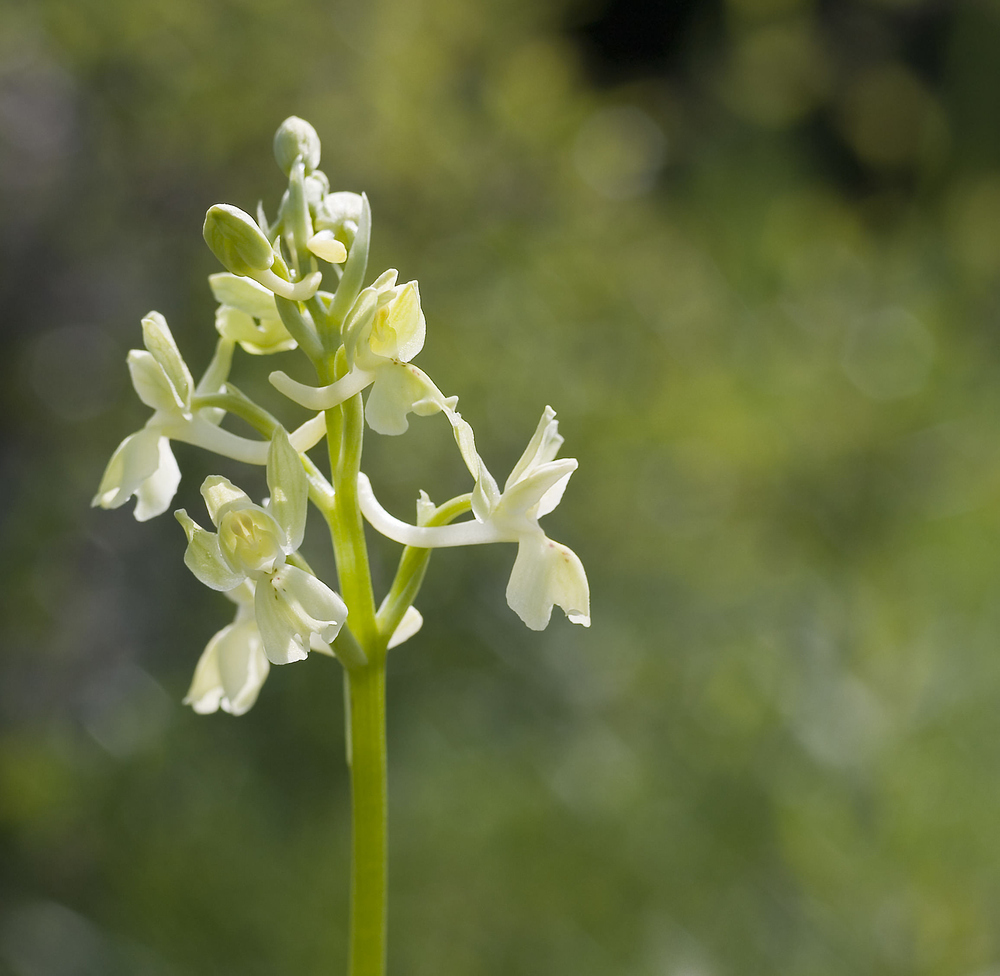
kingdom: Plantae
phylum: Tracheophyta
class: Liliopsida
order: Asparagales
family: Orchidaceae
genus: Orchis
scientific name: Orchis provincialis
